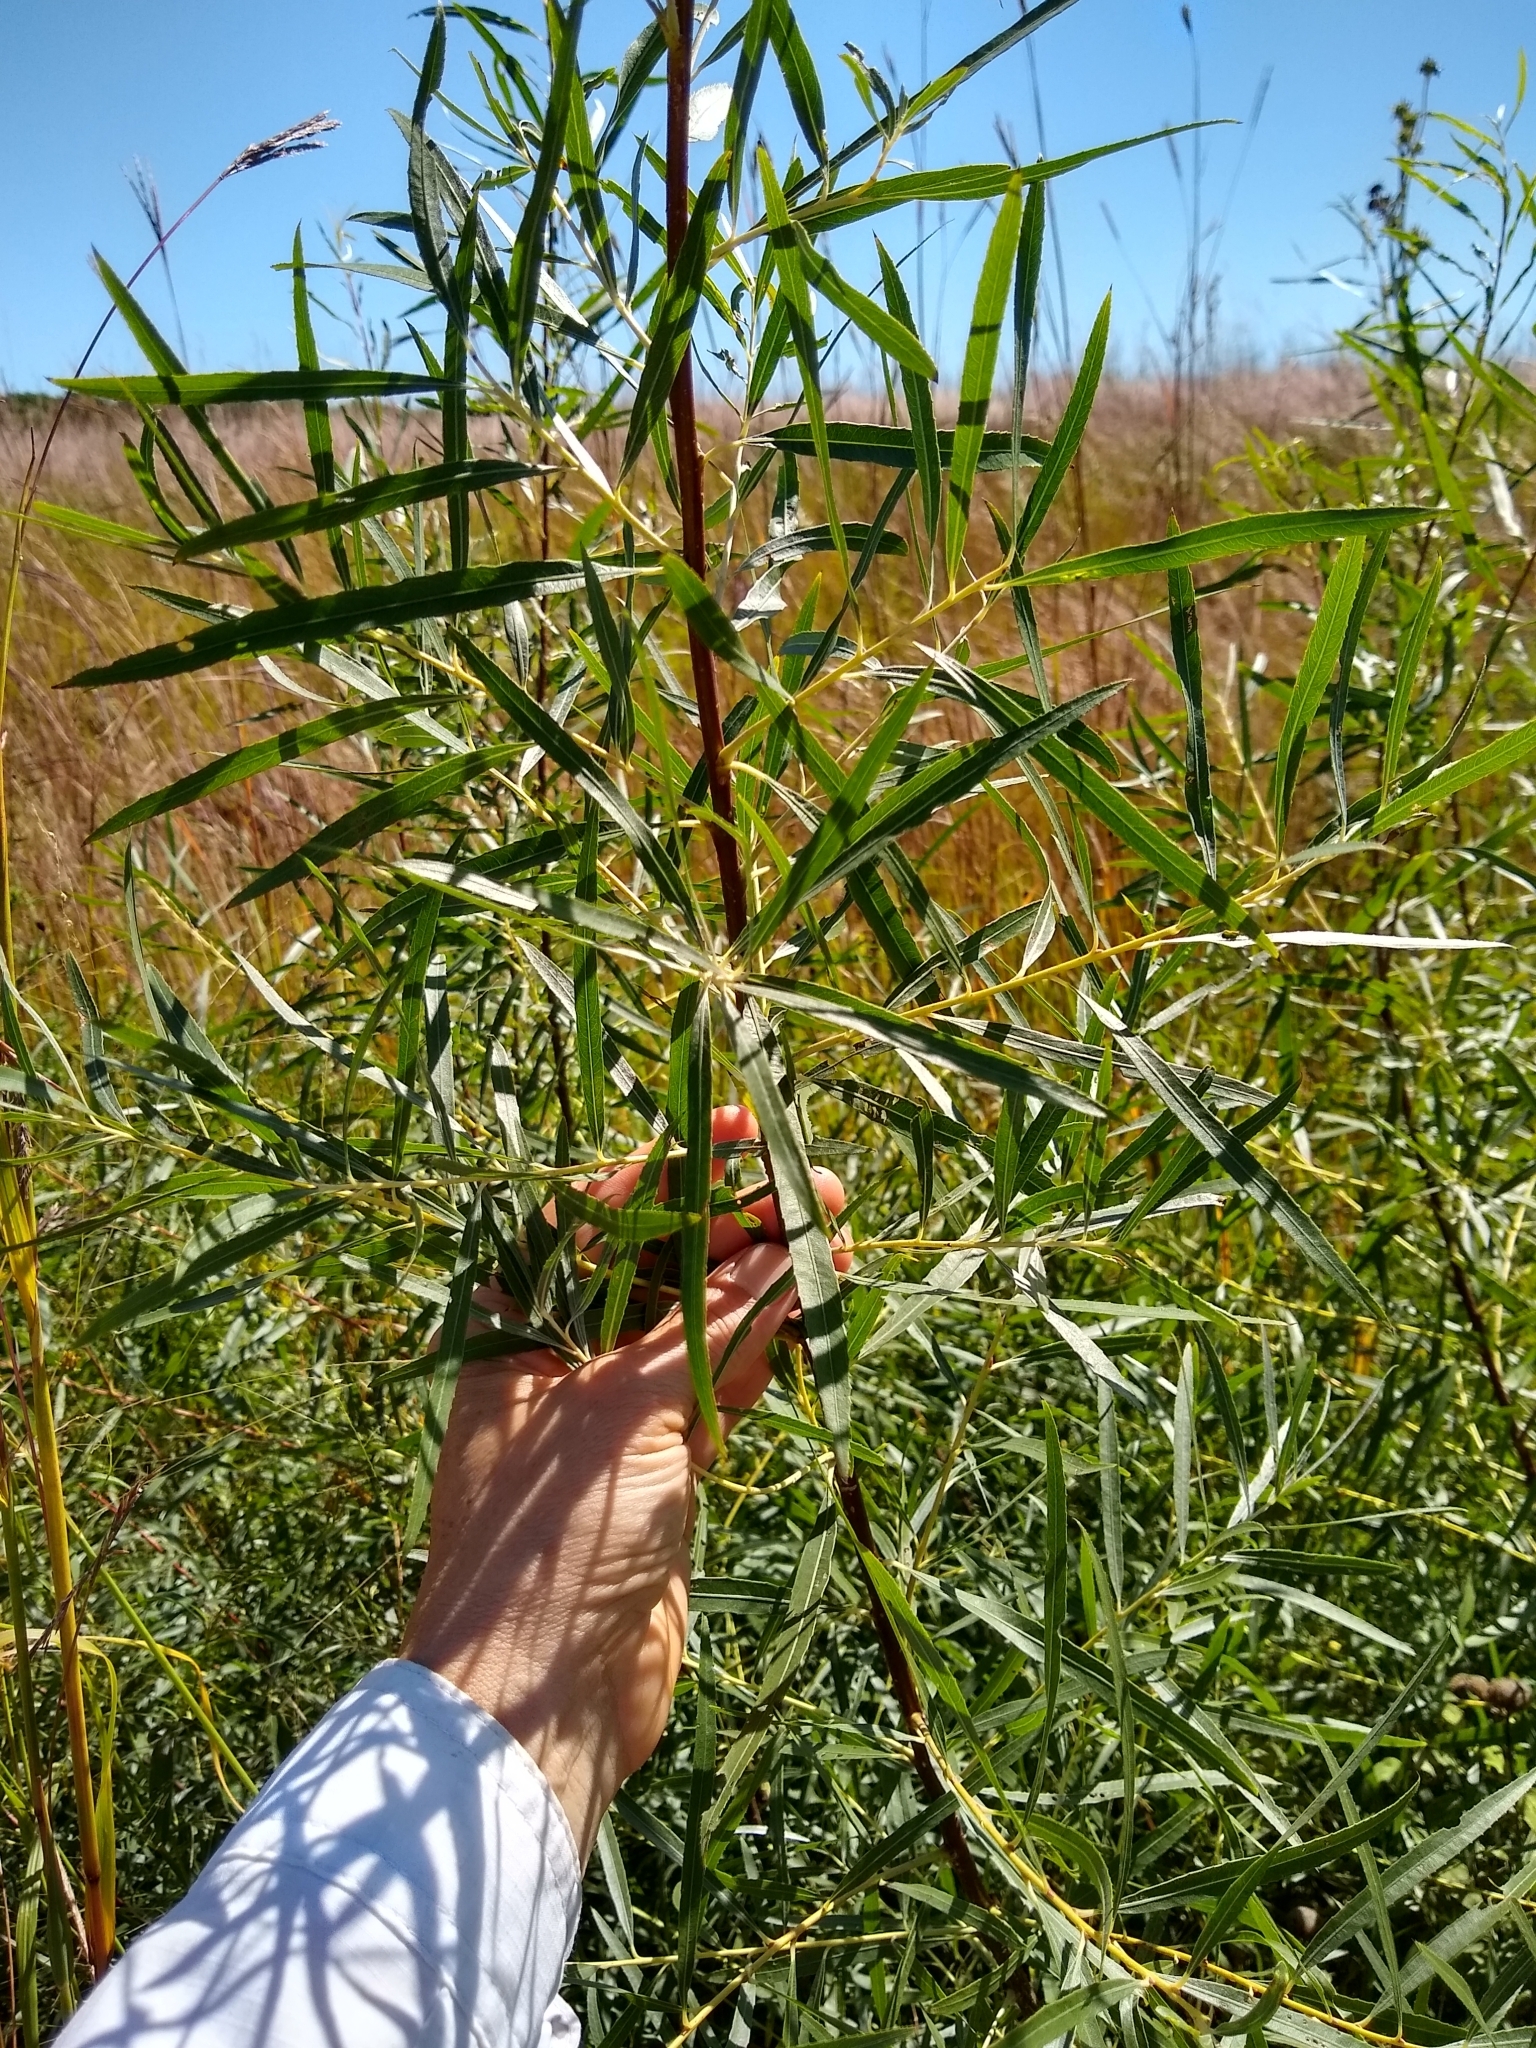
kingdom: Plantae
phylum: Tracheophyta
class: Magnoliopsida
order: Malpighiales
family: Salicaceae
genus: Salix
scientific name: Salix interior
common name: Sandbar willow
